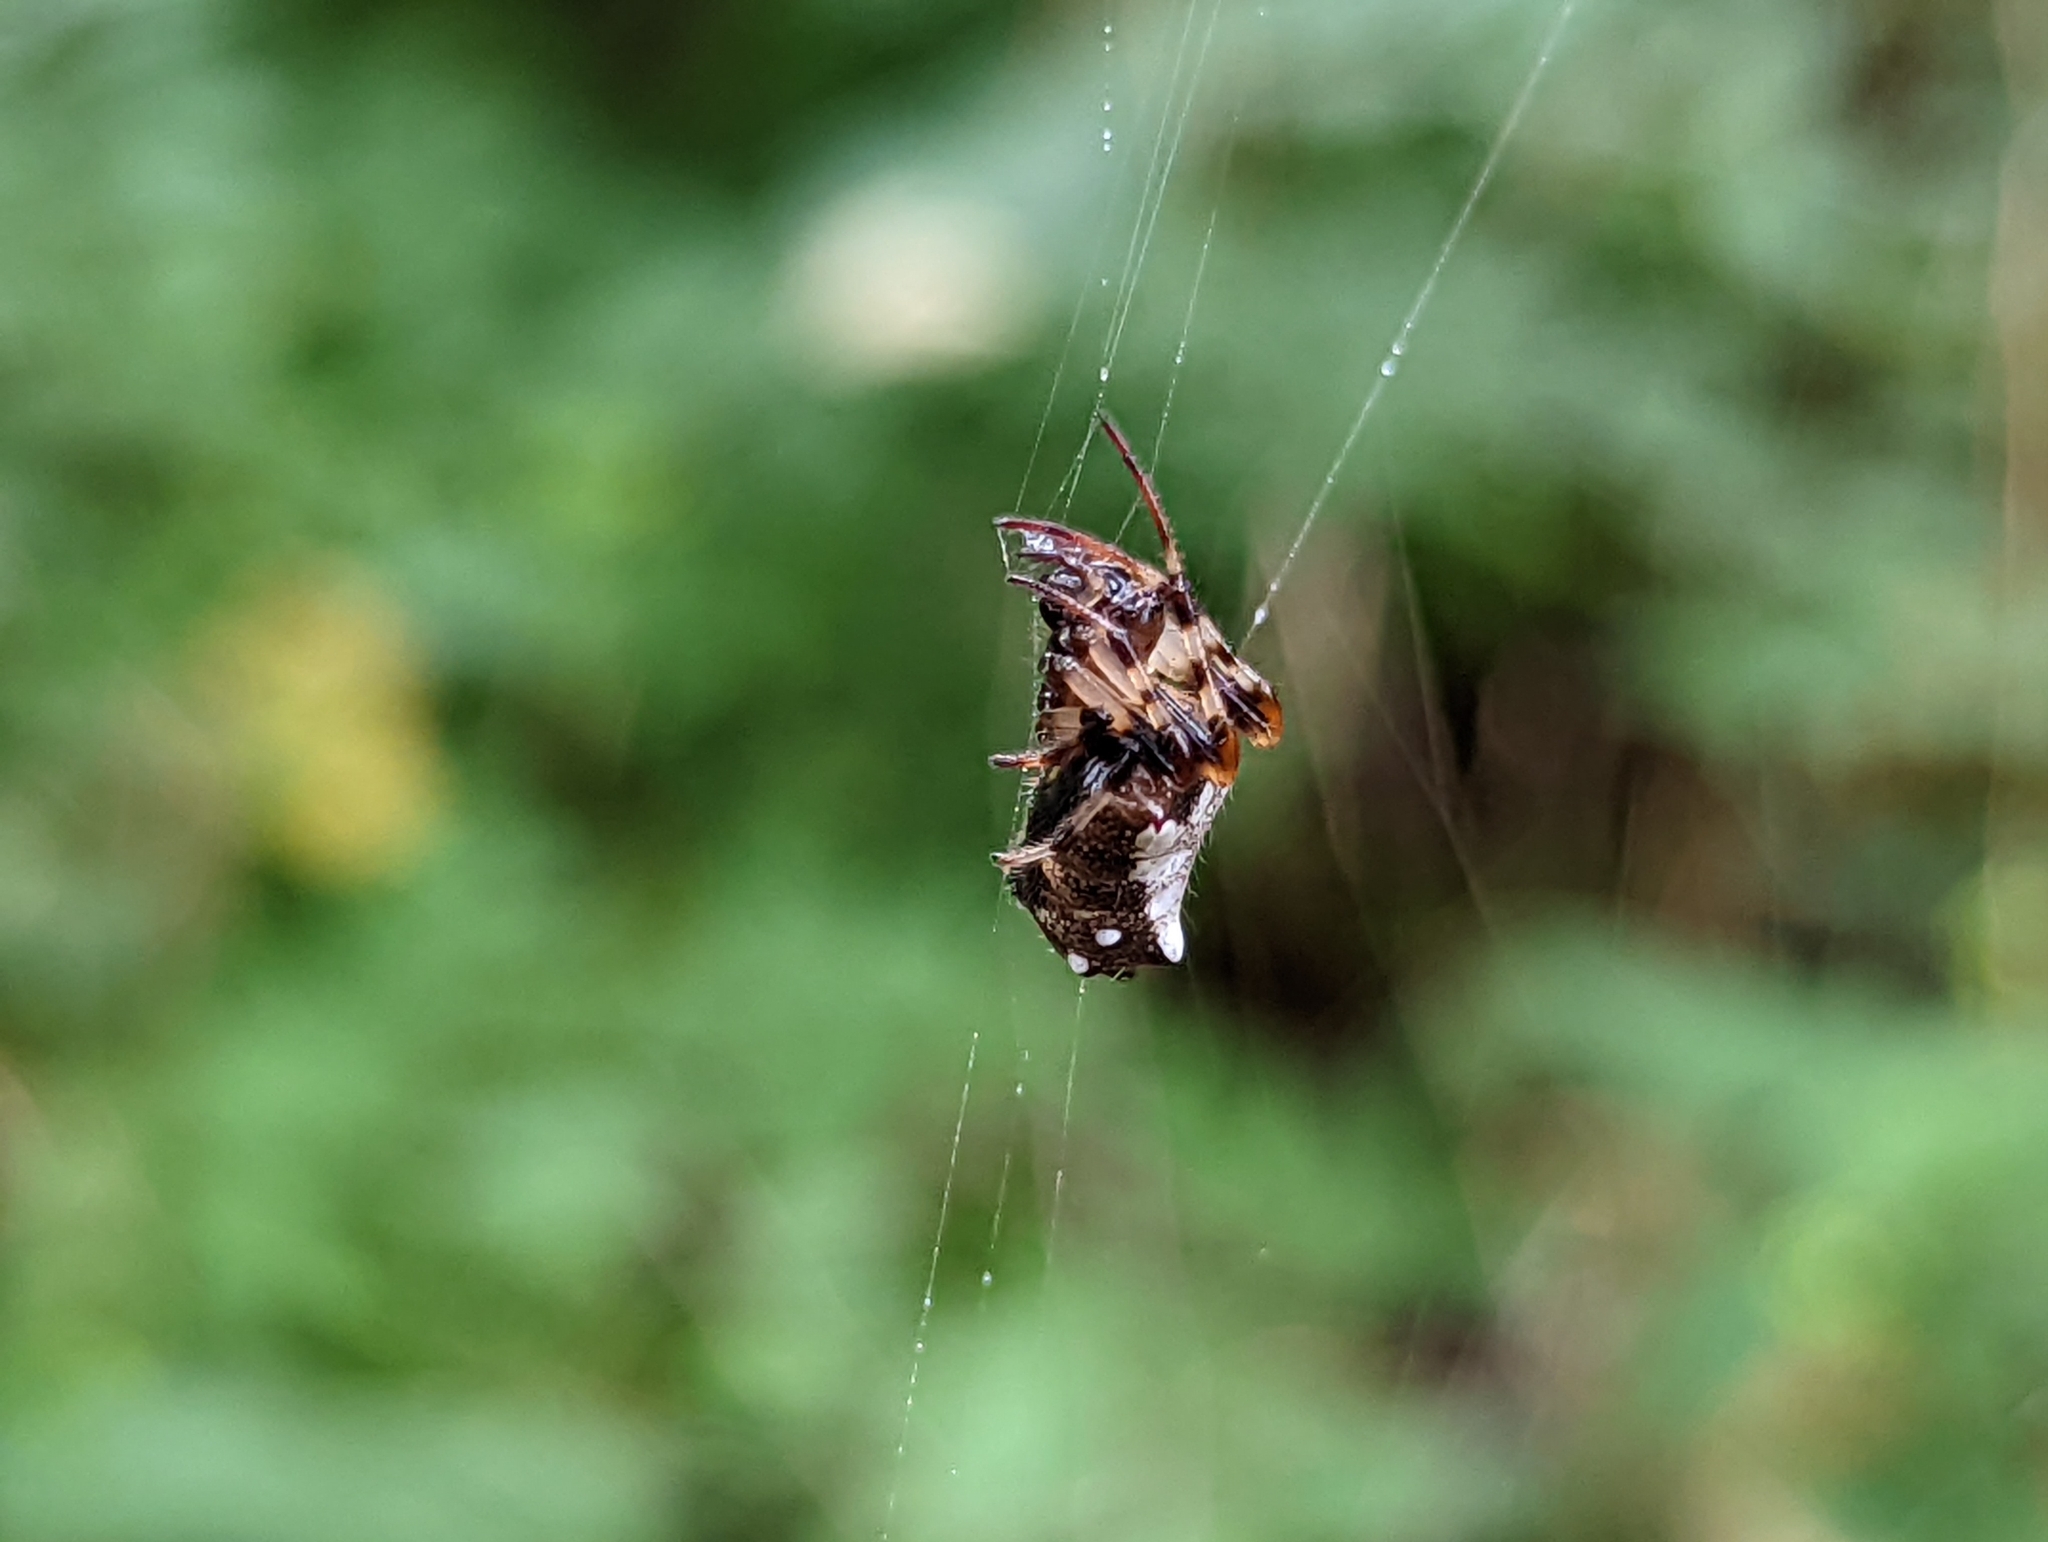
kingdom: Animalia
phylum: Arthropoda
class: Arachnida
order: Araneae
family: Araneidae
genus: Verrucosa
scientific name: Verrucosa arenata
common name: Orb weavers
